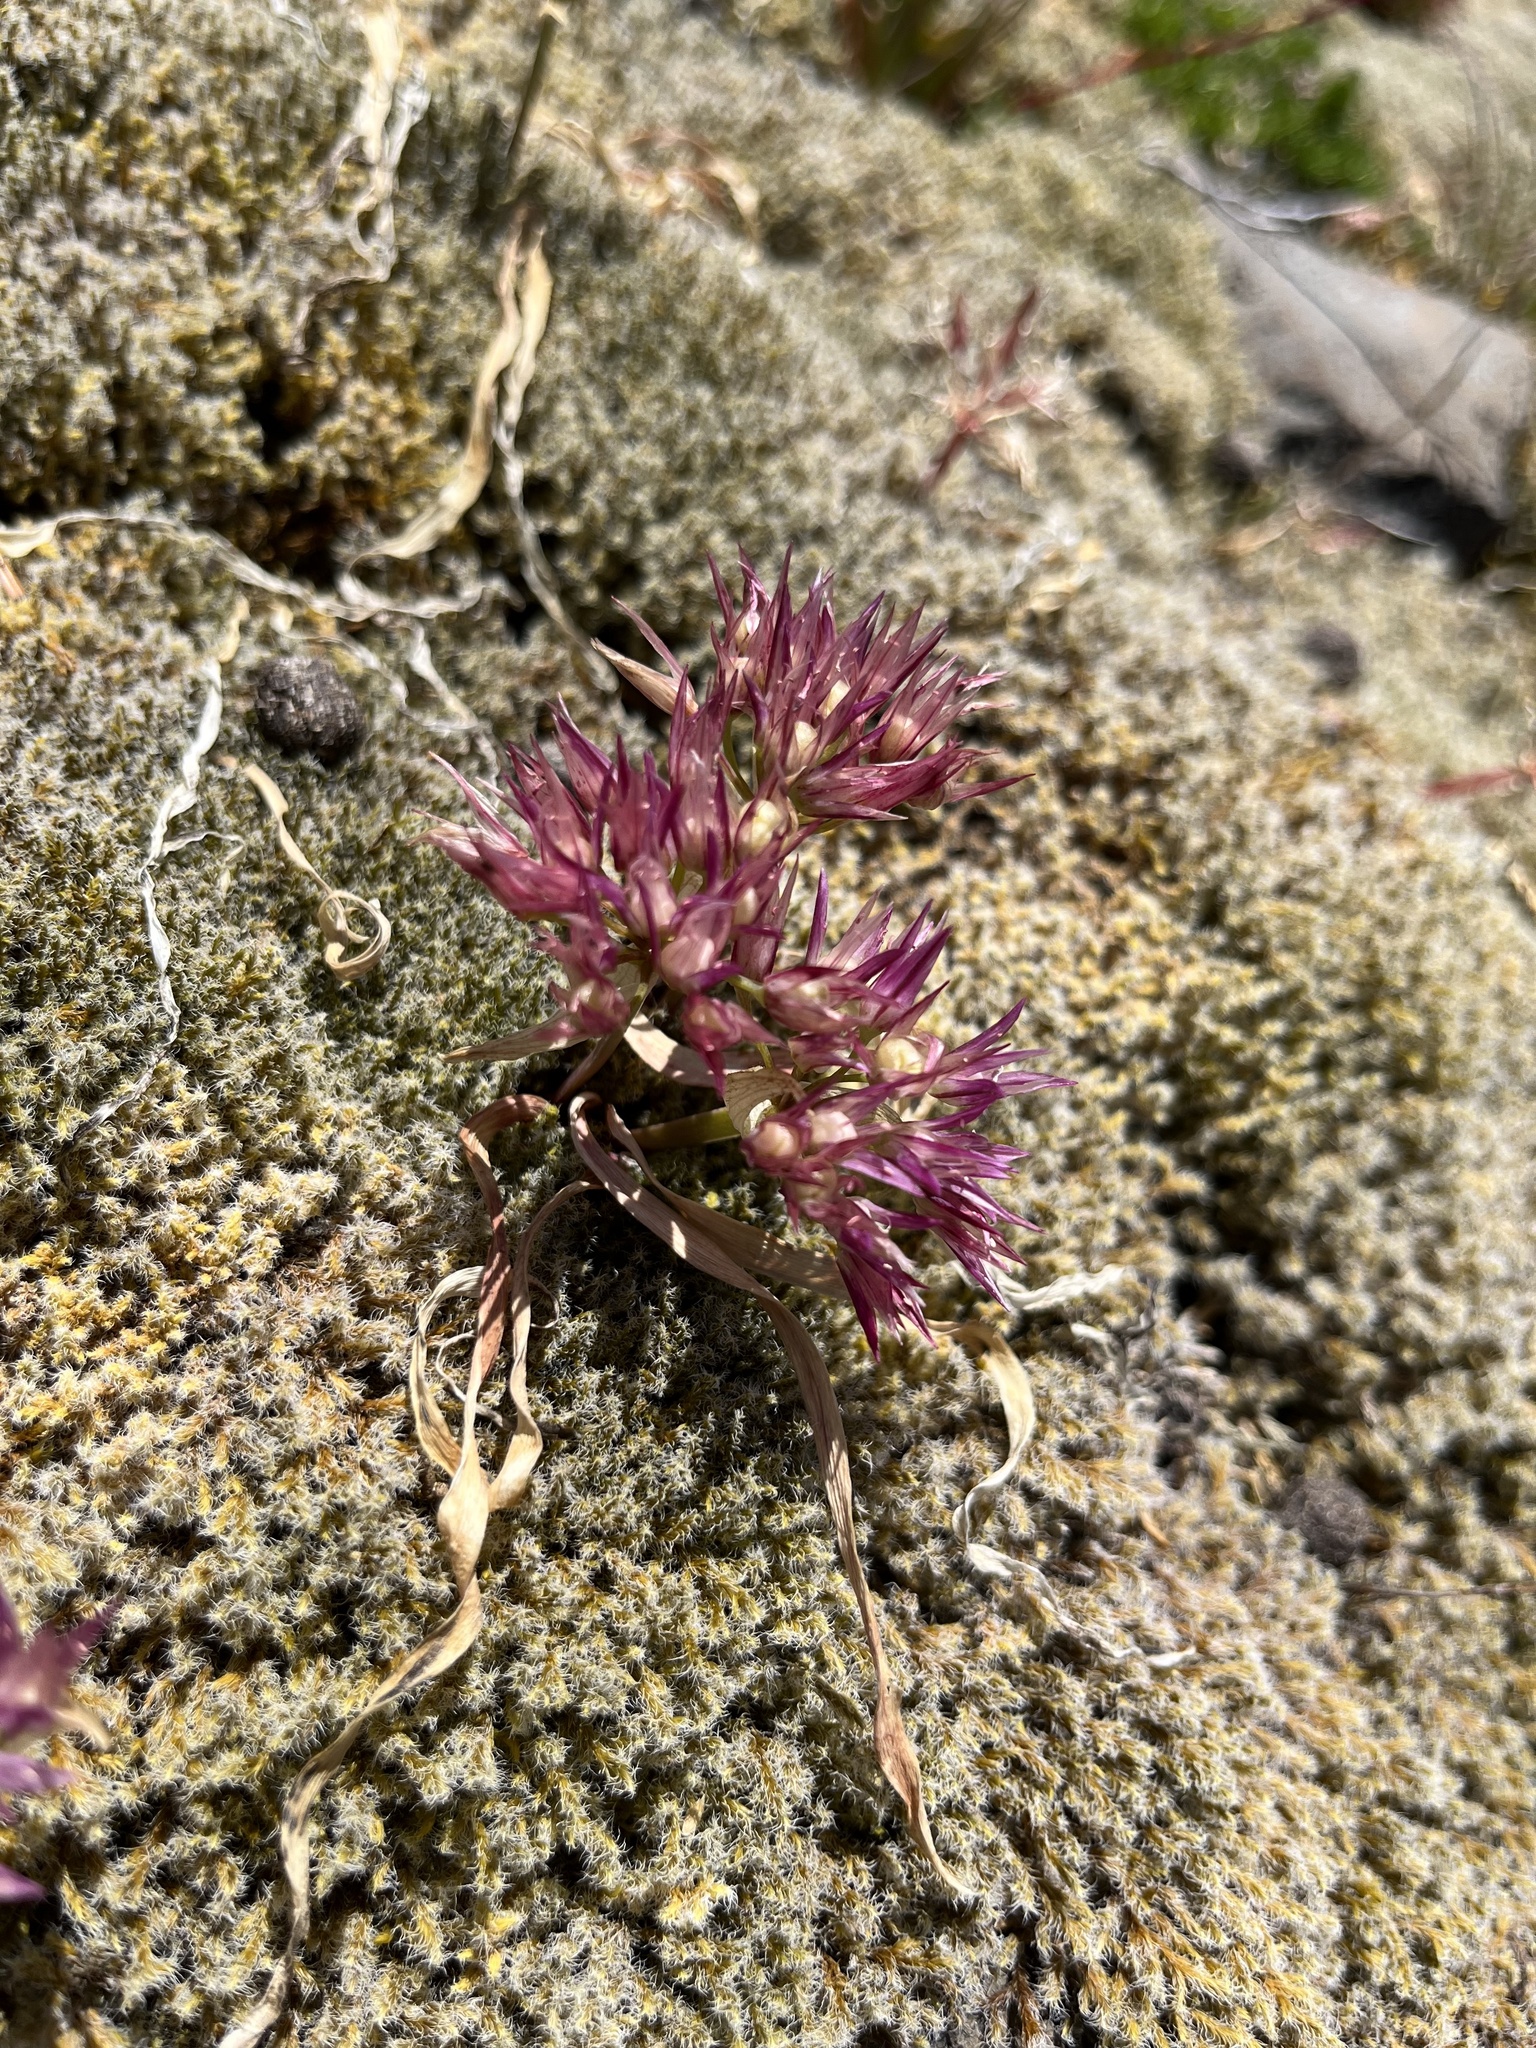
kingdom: Plantae
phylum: Tracheophyta
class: Liliopsida
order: Asparagales
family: Amaryllidaceae
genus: Allium
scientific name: Allium crenulatum
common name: Olympic onion
